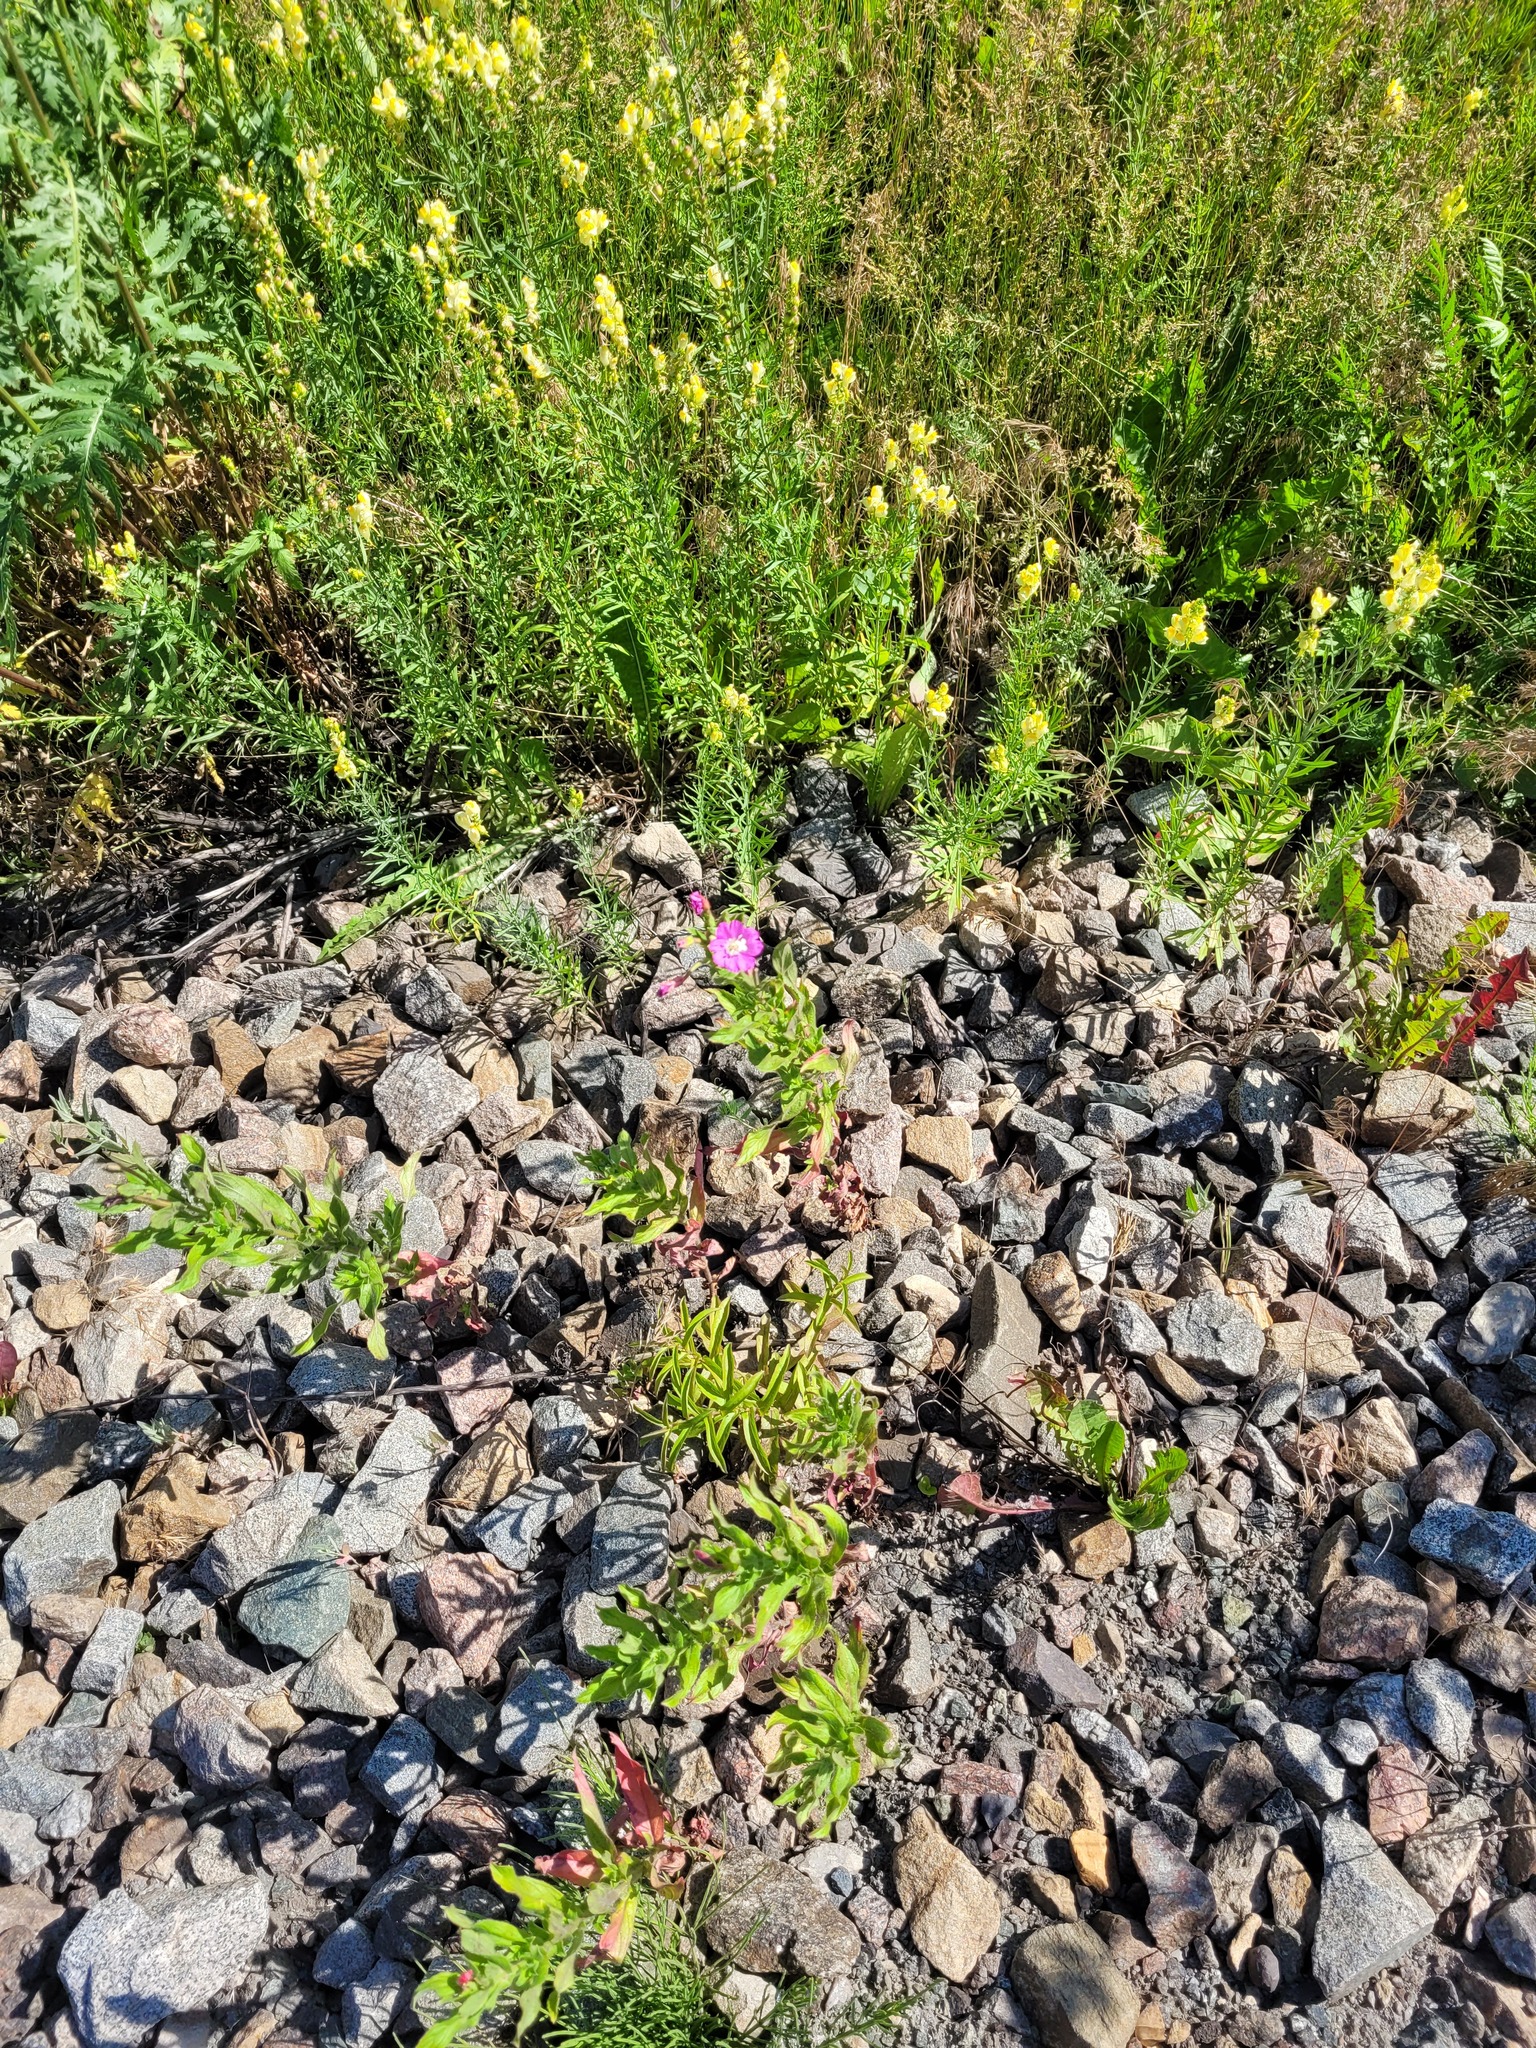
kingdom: Plantae
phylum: Tracheophyta
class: Magnoliopsida
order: Myrtales
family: Onagraceae
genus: Epilobium
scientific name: Epilobium hirsutum
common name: Great willowherb
